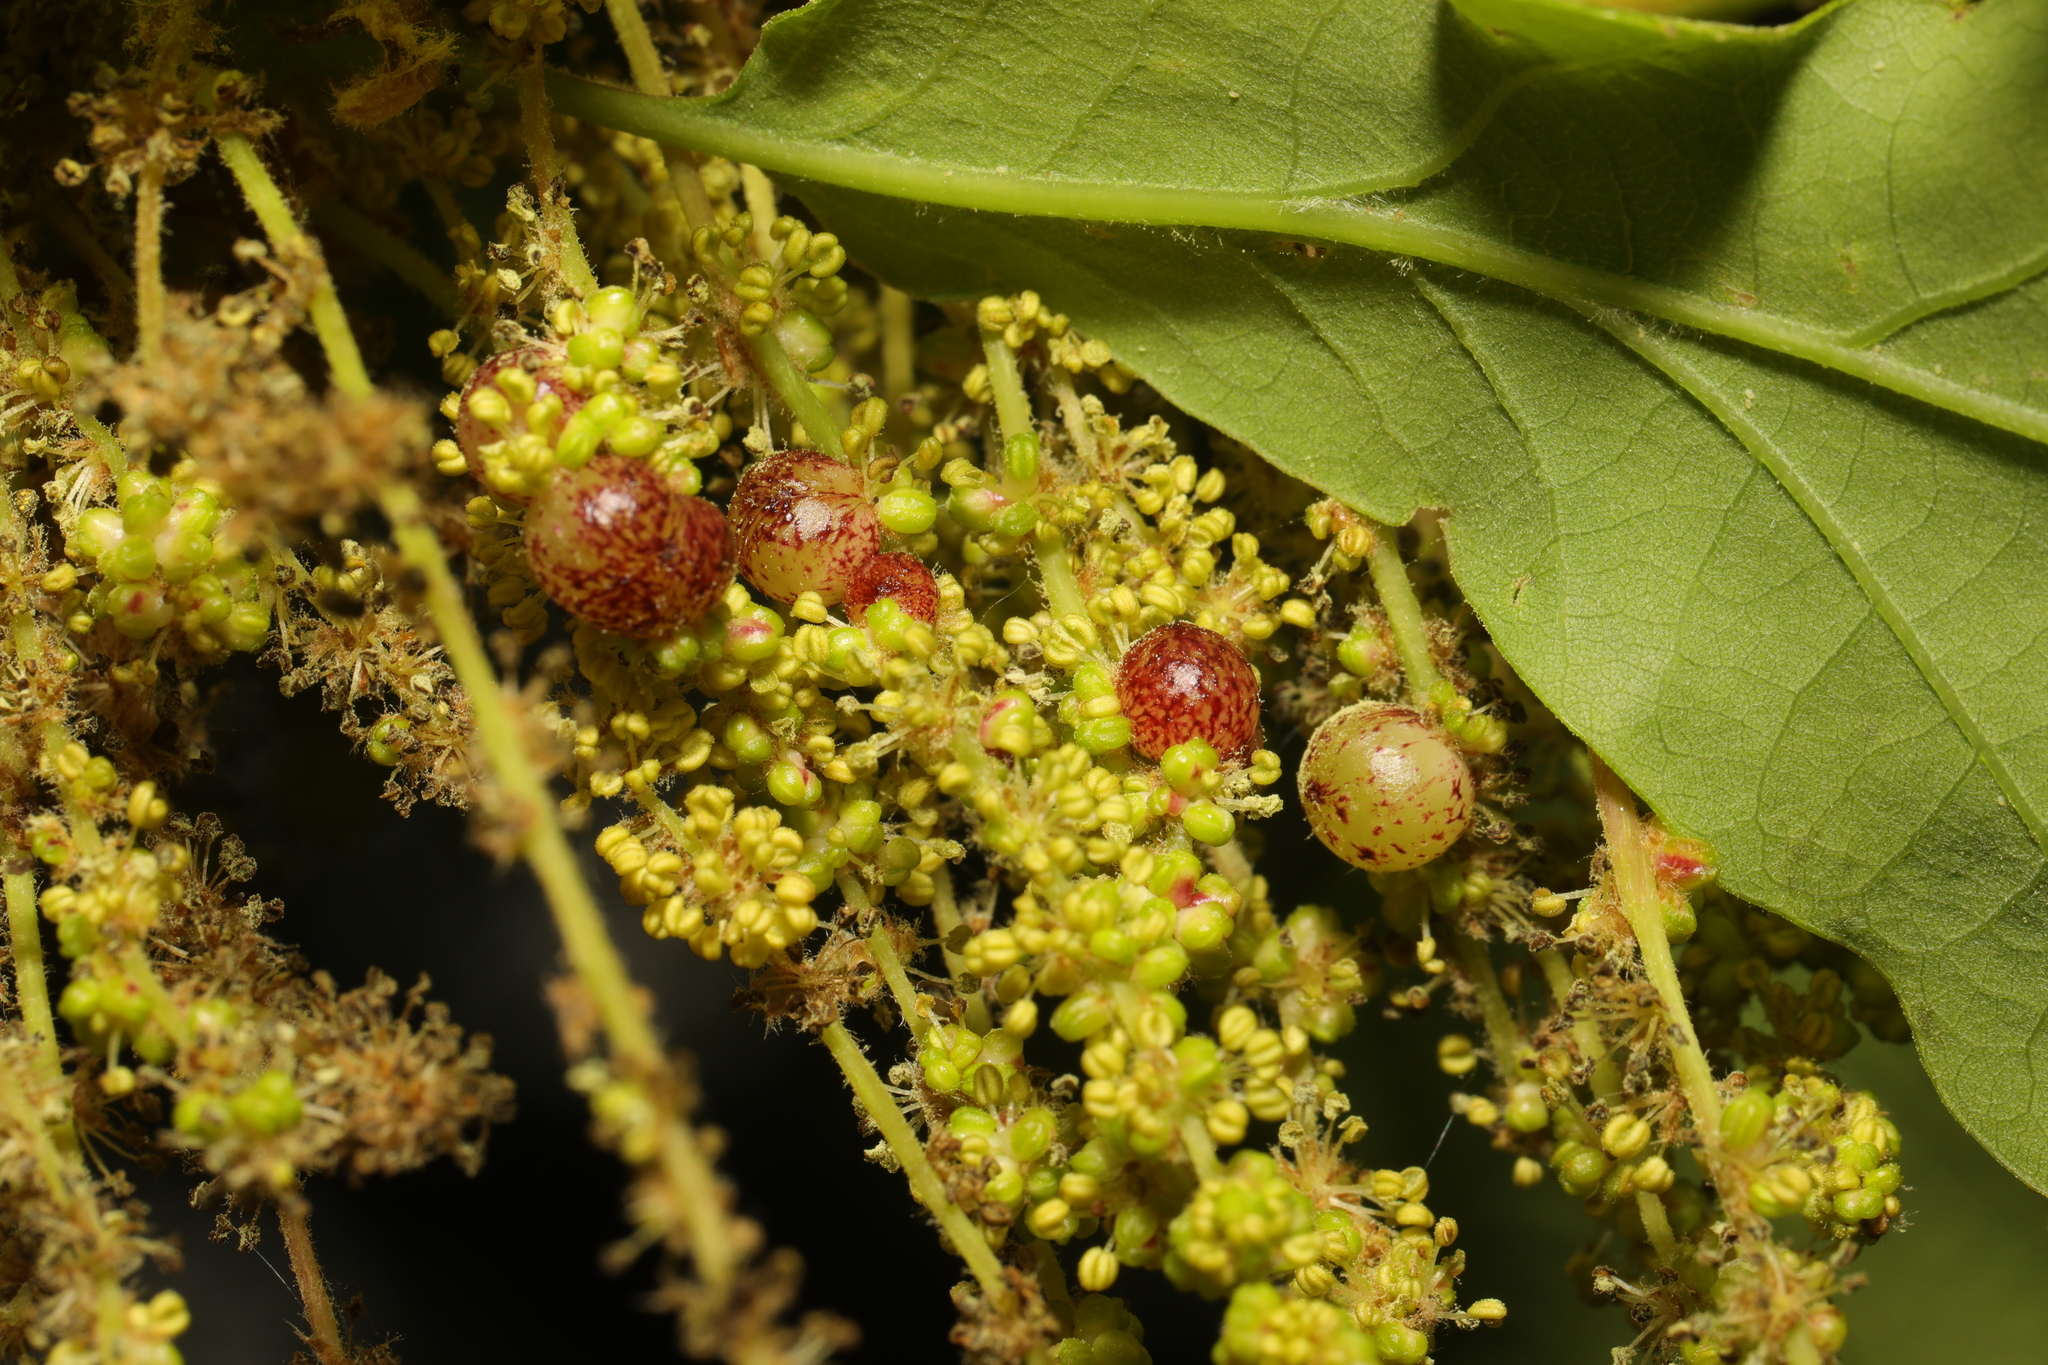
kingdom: Animalia
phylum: Arthropoda
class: Insecta
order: Hymenoptera
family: Cynipidae
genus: Neuroterus
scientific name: Neuroterus quercusbaccarum
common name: Common spangle gall
